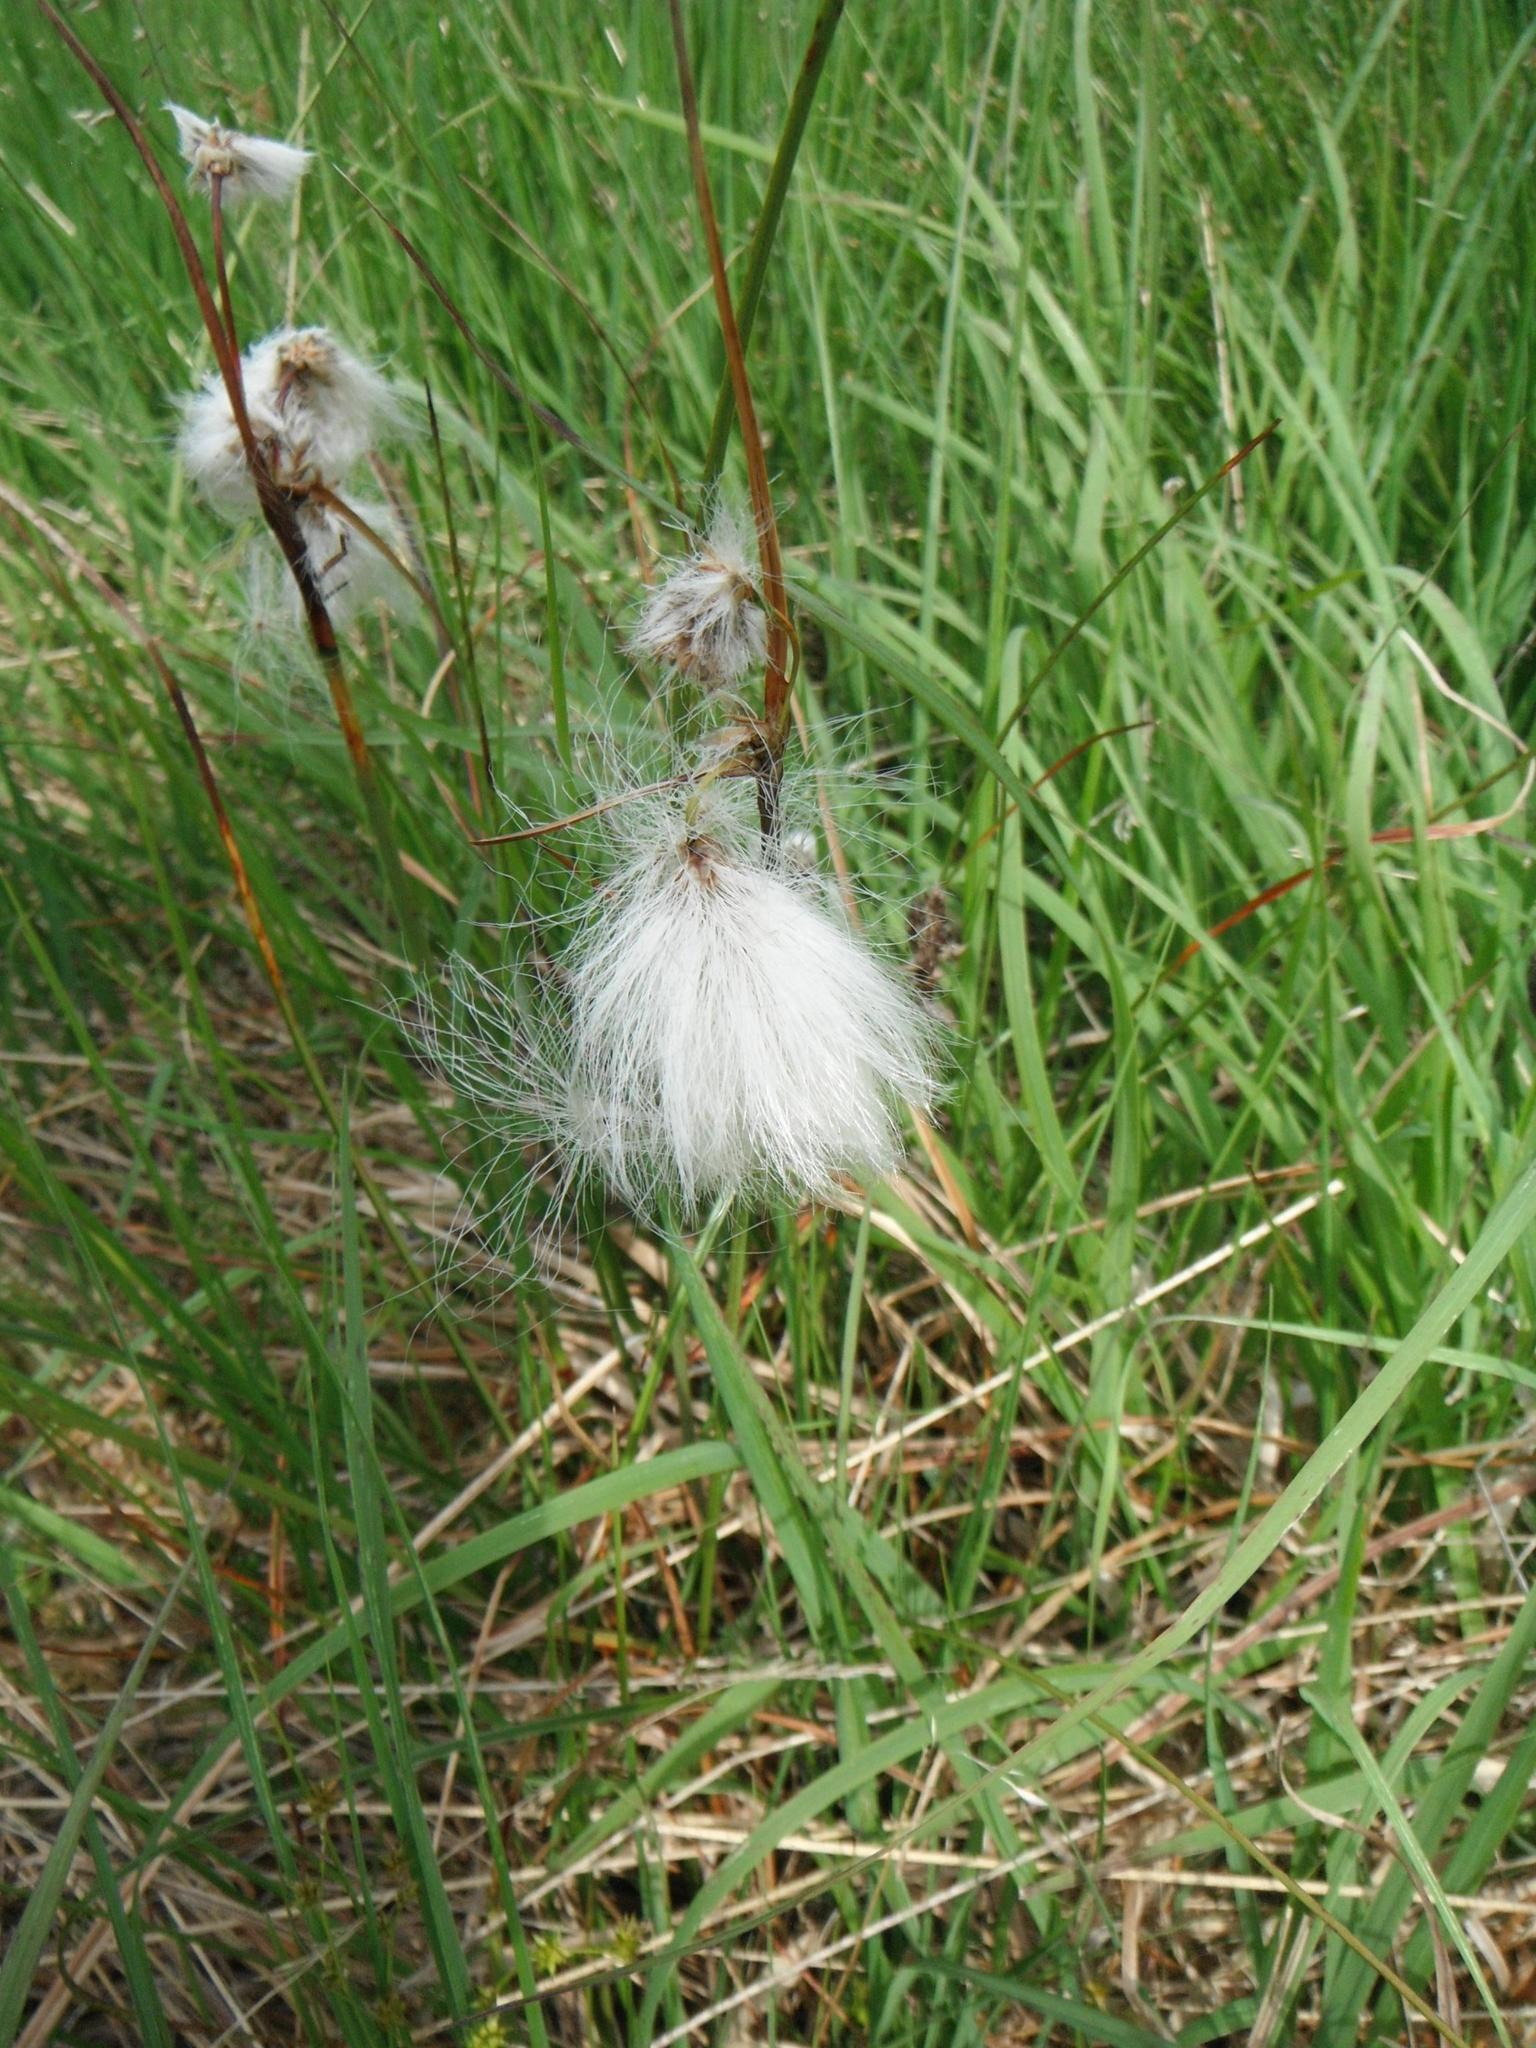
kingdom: Plantae
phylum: Tracheophyta
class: Liliopsida
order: Poales
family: Cyperaceae
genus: Eriophorum
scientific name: Eriophorum angustifolium
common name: Common cottongrass
